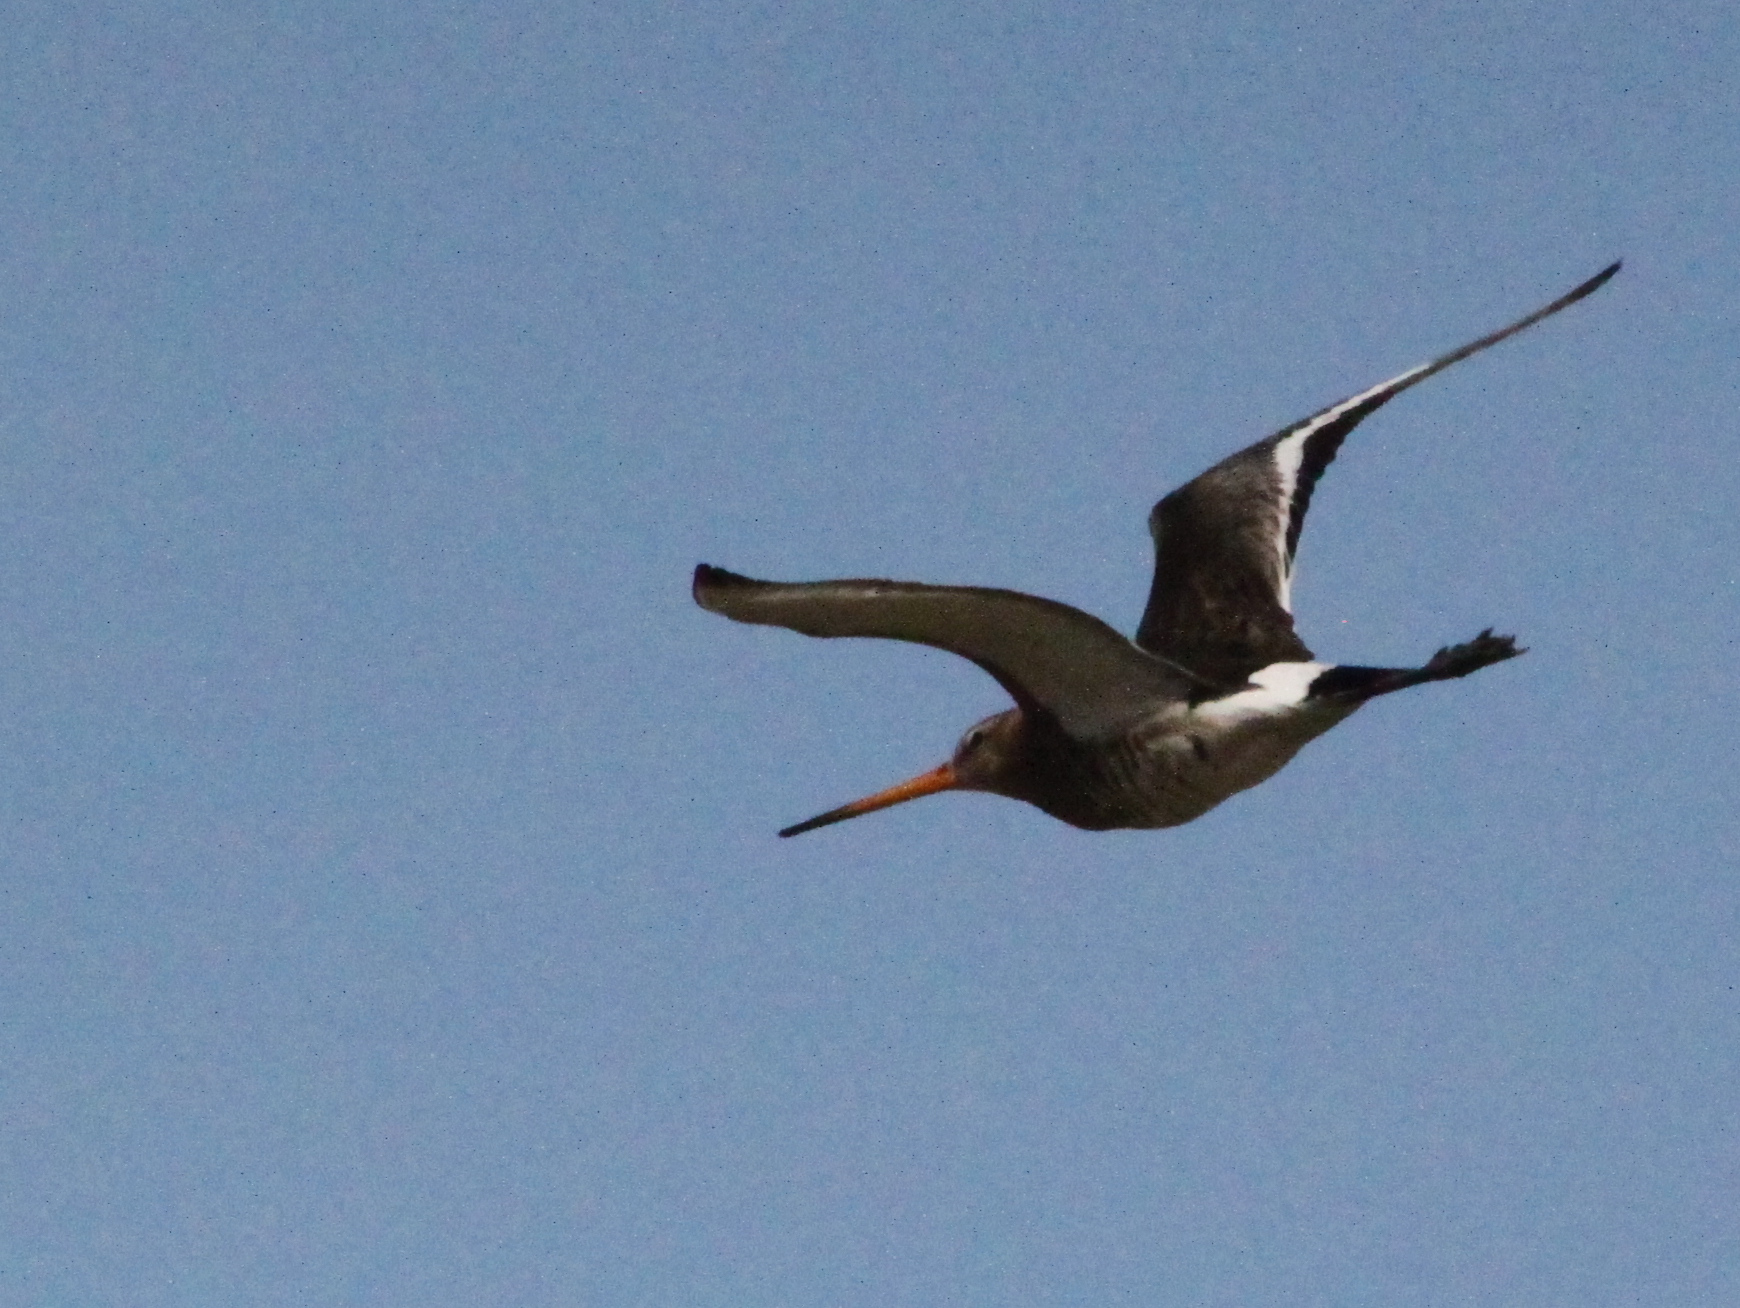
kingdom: Animalia
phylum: Chordata
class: Aves
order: Charadriiformes
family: Scolopacidae
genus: Limosa
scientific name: Limosa limosa
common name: Black-tailed godwit
